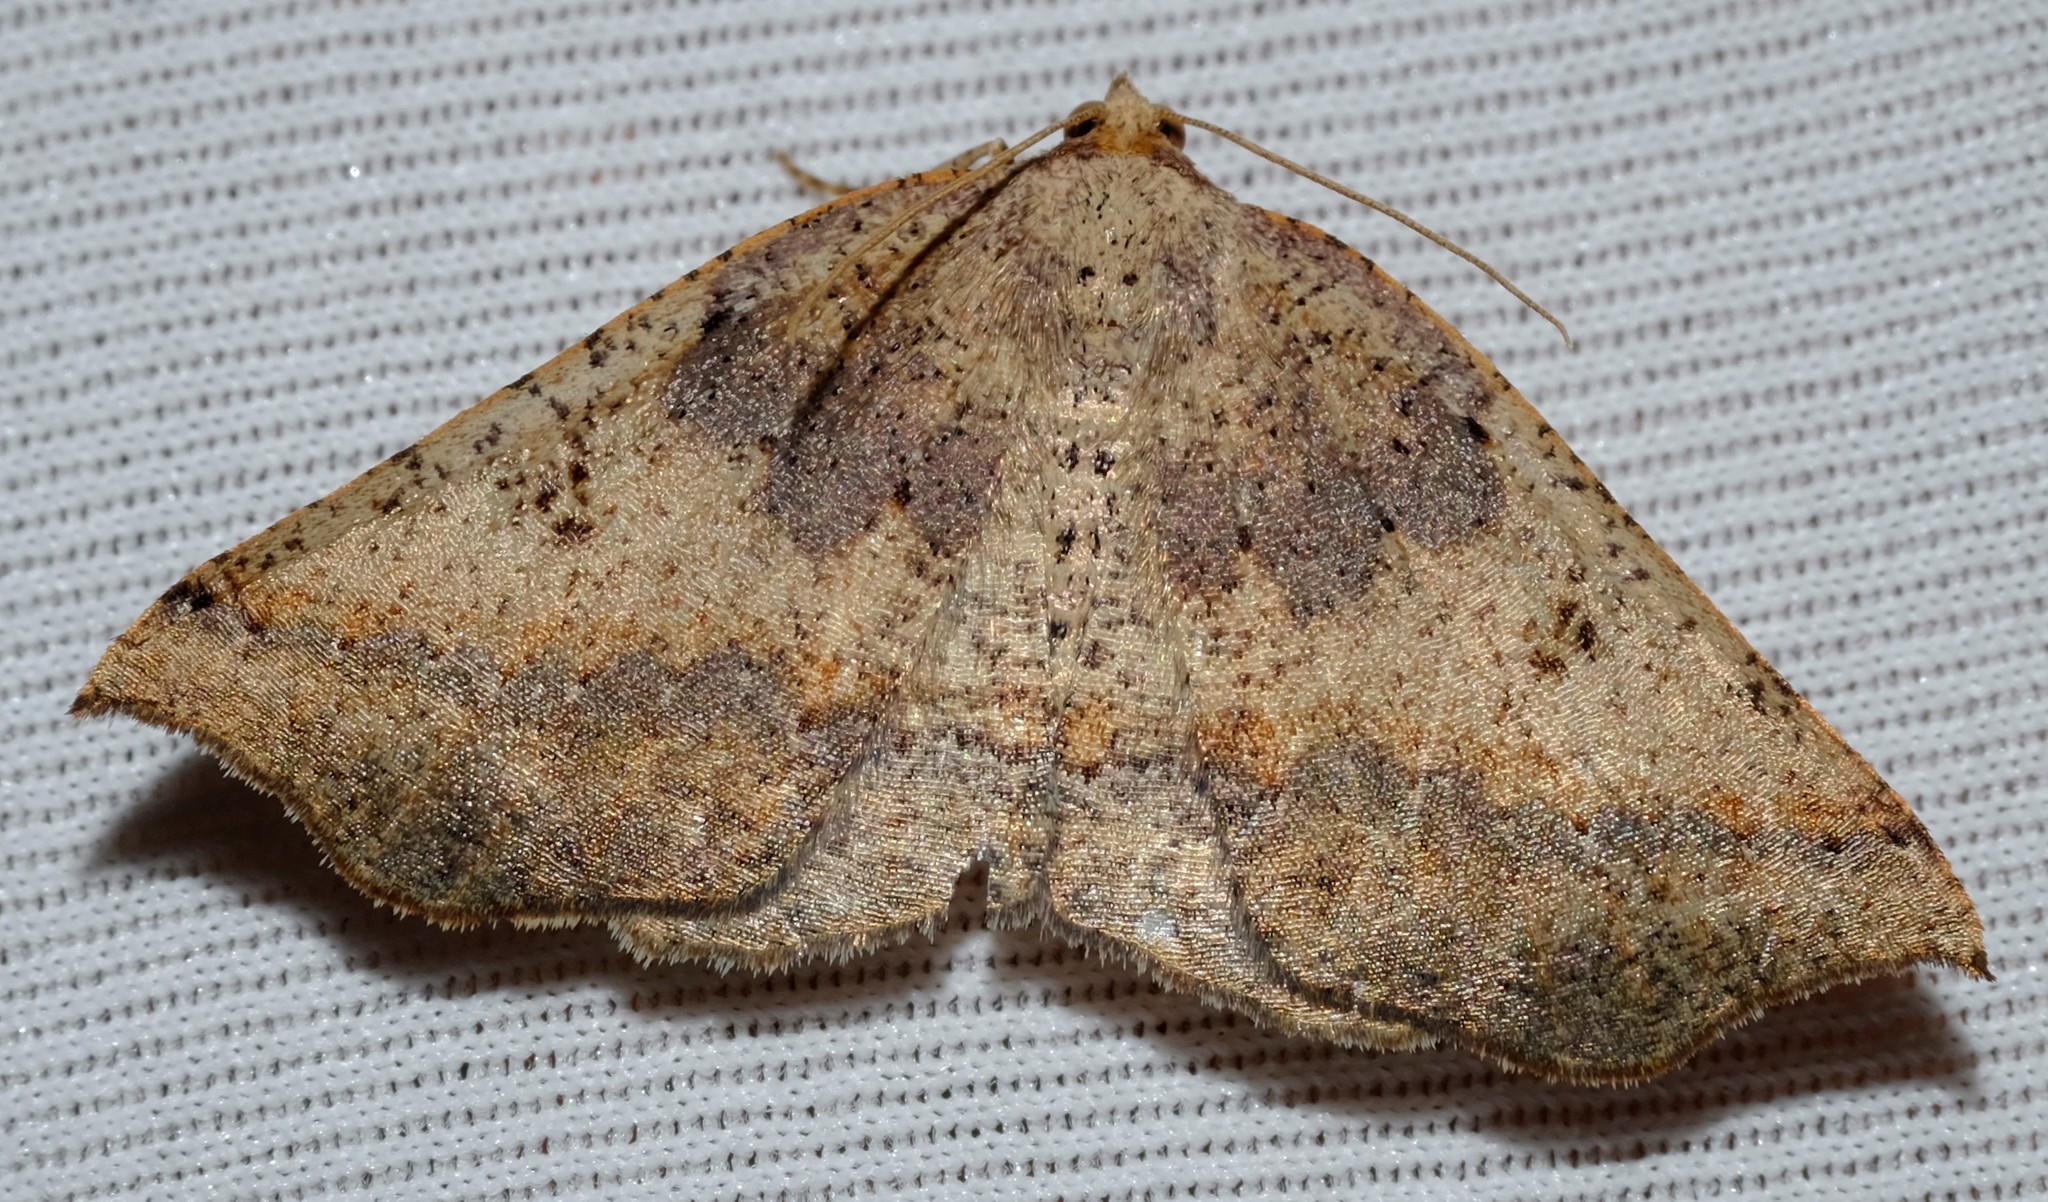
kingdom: Animalia
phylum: Arthropoda
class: Insecta
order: Lepidoptera
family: Geometridae
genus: Planolocha
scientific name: Planolocha autoptis
